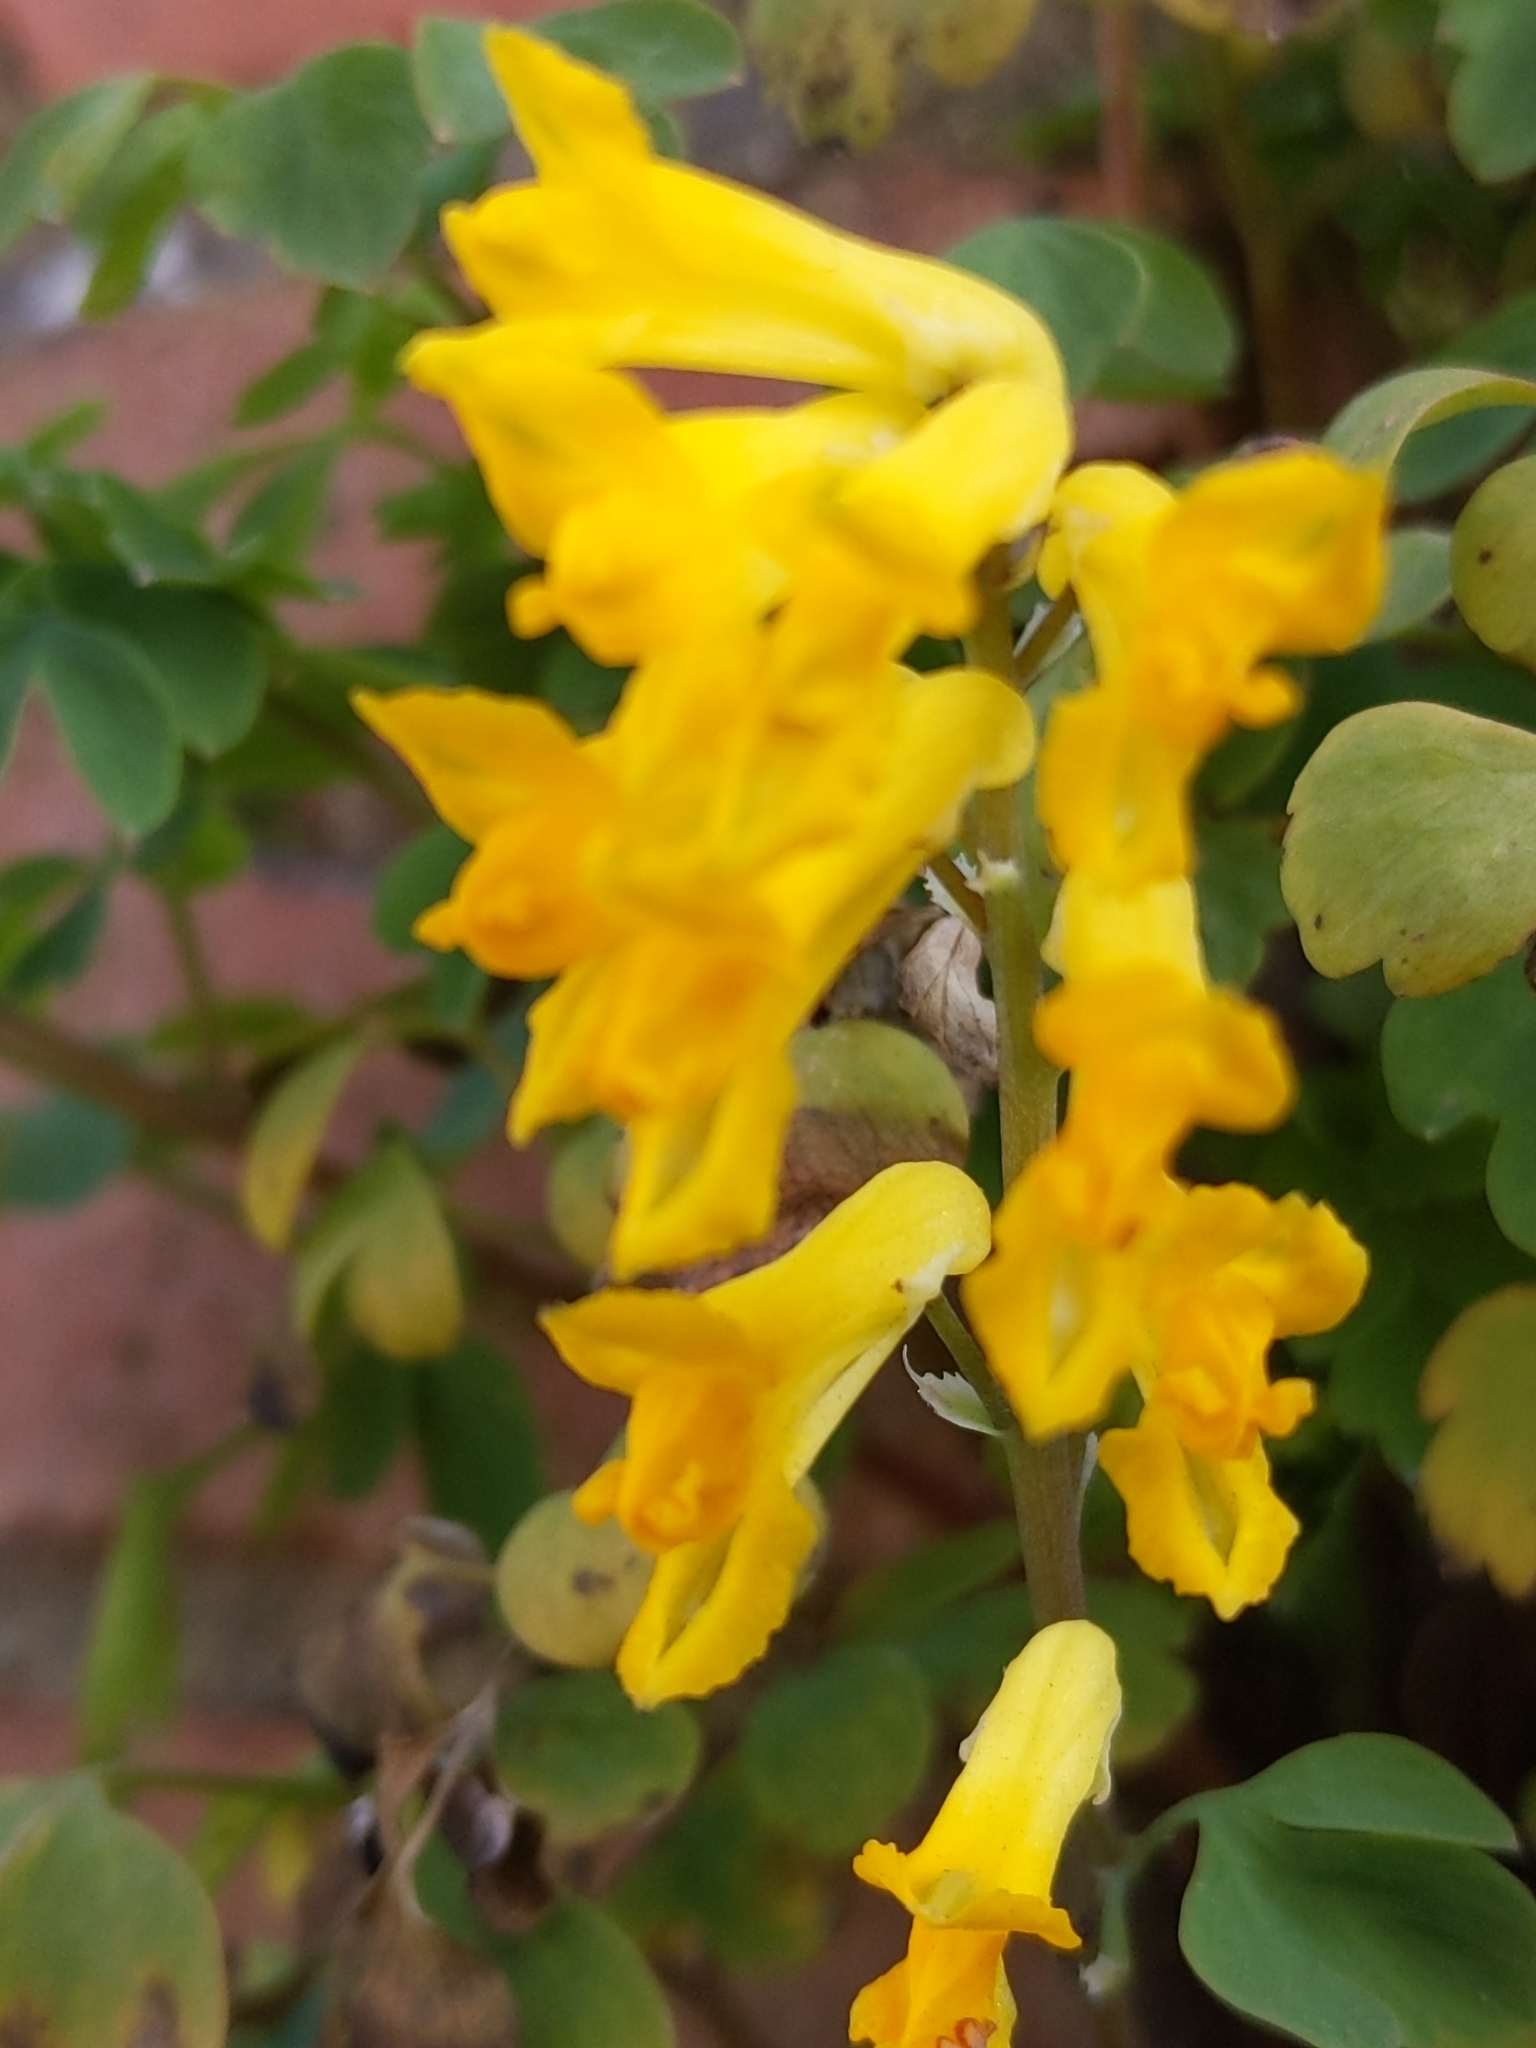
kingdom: Plantae
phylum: Tracheophyta
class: Magnoliopsida
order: Ranunculales
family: Papaveraceae
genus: Pseudofumaria
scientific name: Pseudofumaria lutea
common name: Yellow corydalis
